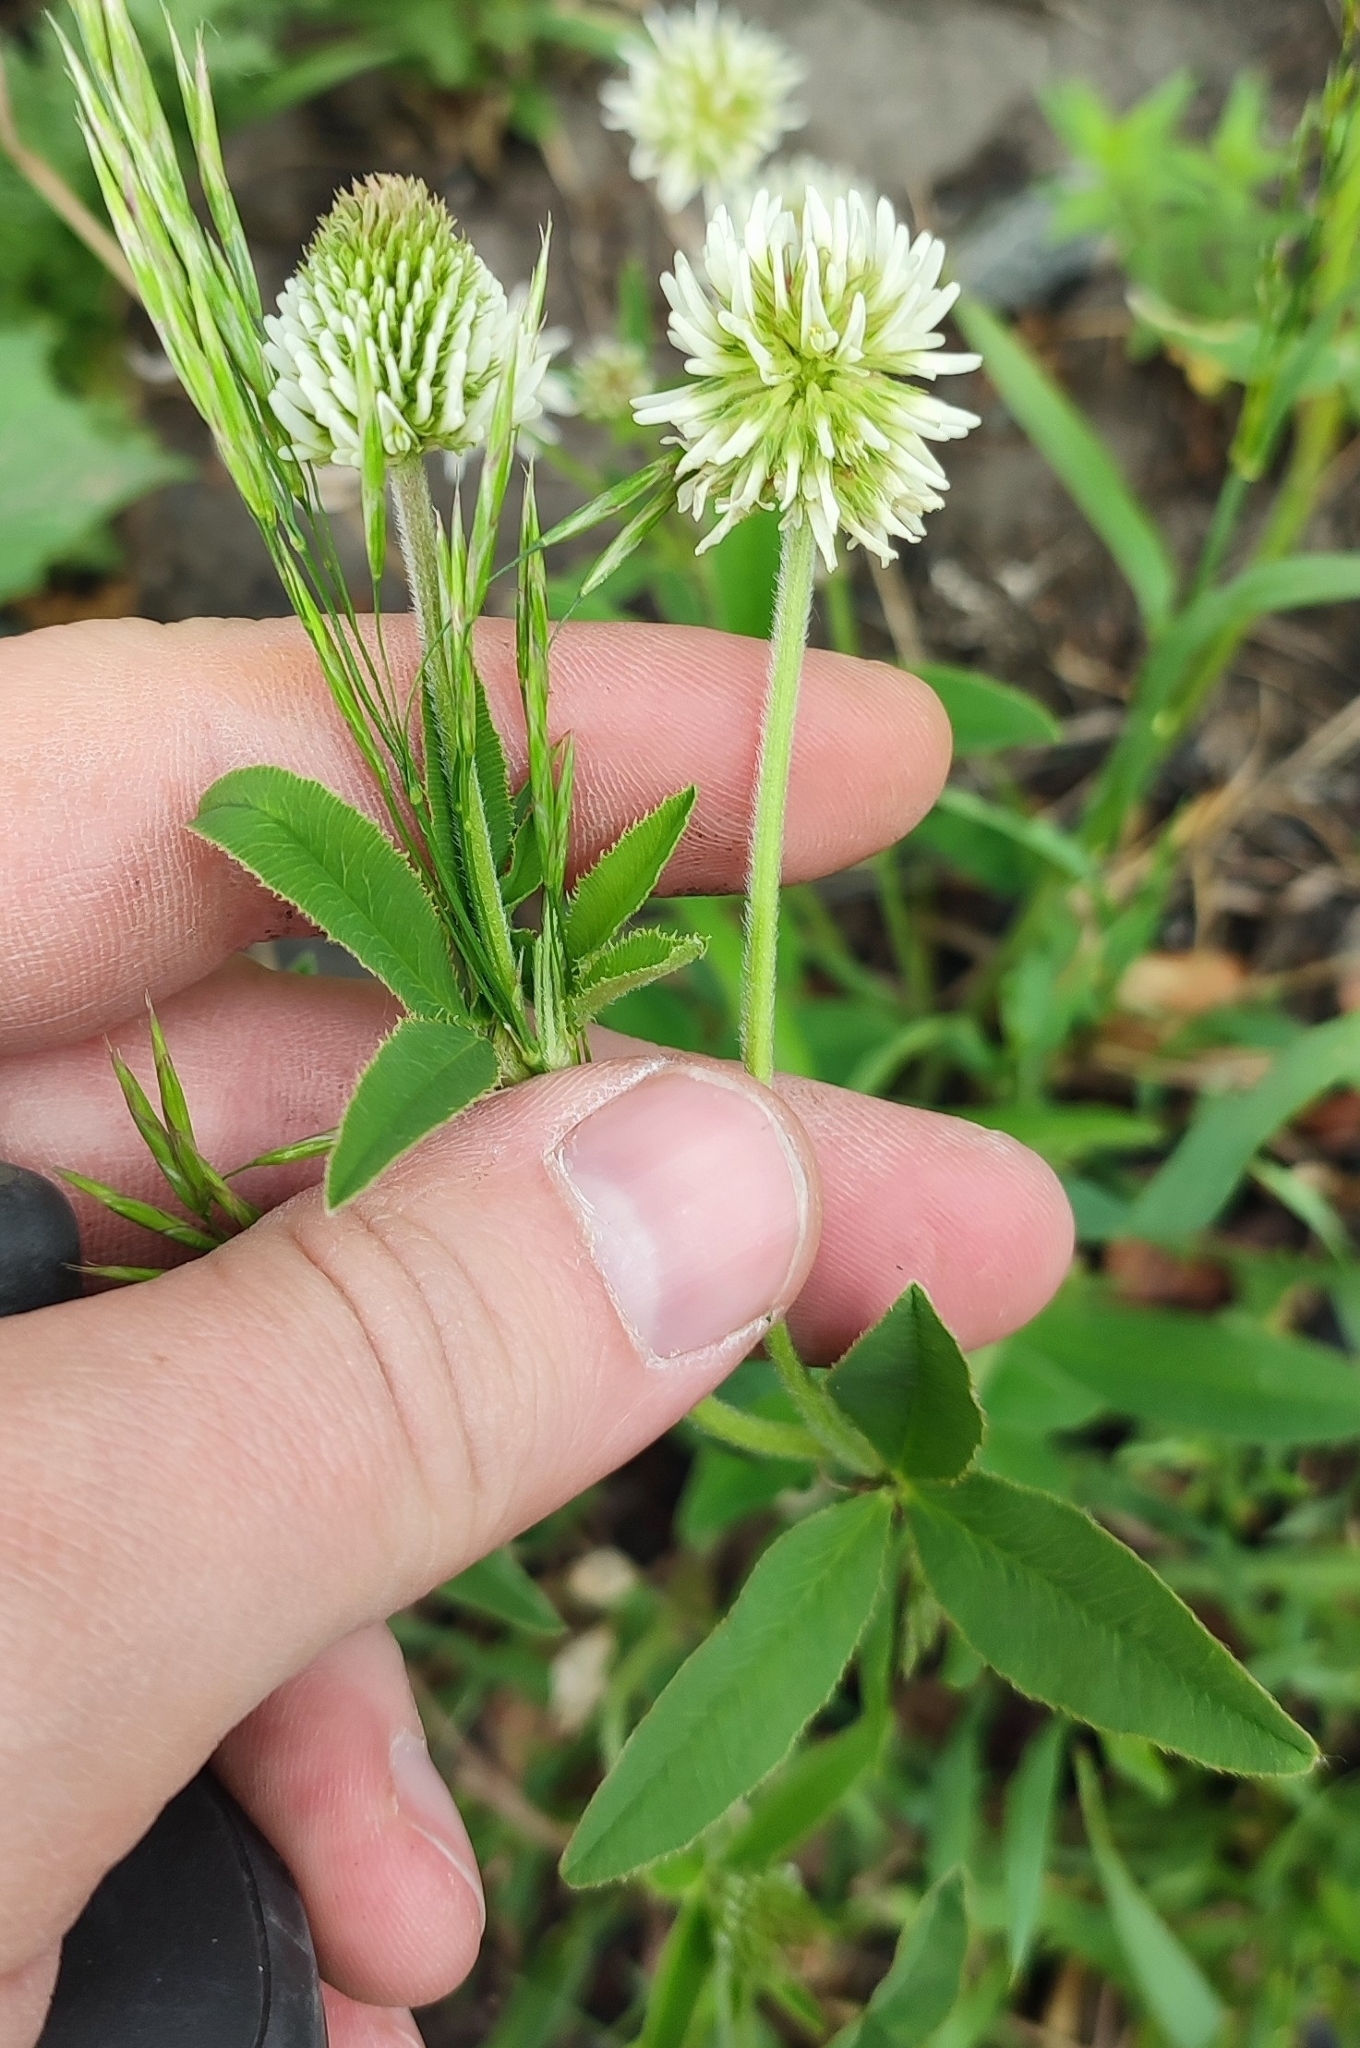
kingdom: Plantae
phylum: Tracheophyta
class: Magnoliopsida
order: Fabales
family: Fabaceae
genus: Trifolium
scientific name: Trifolium montanum
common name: Mountain clover
